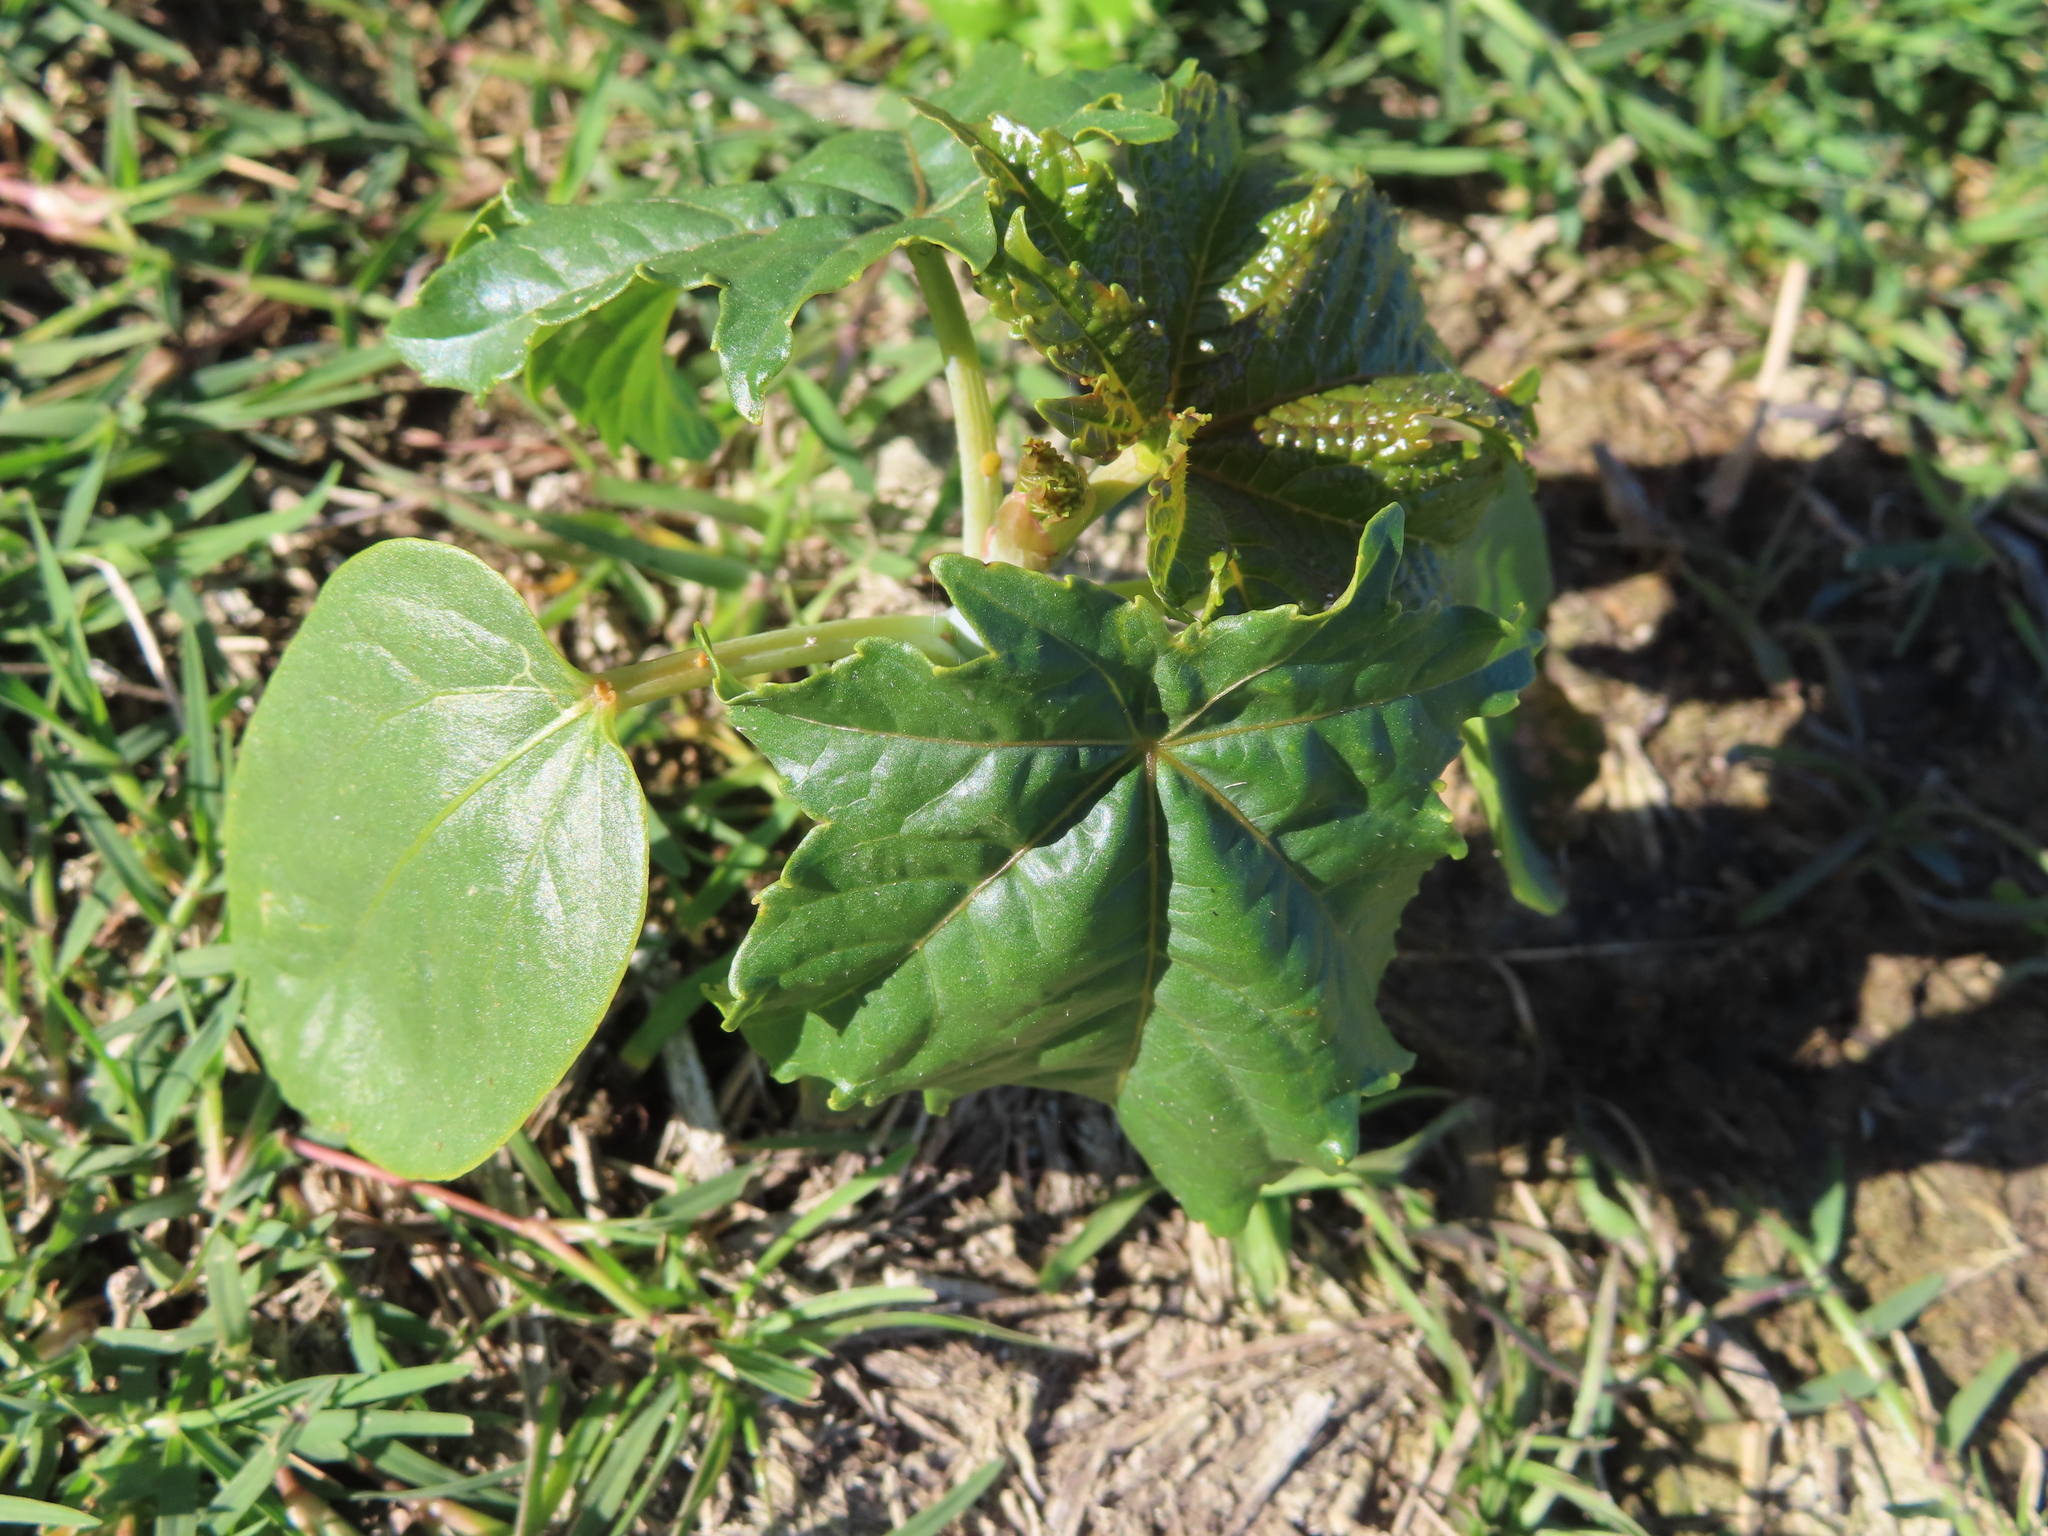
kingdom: Plantae
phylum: Tracheophyta
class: Magnoliopsida
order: Malpighiales
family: Euphorbiaceae
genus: Ricinus
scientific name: Ricinus communis
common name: Castor-oil-plant
